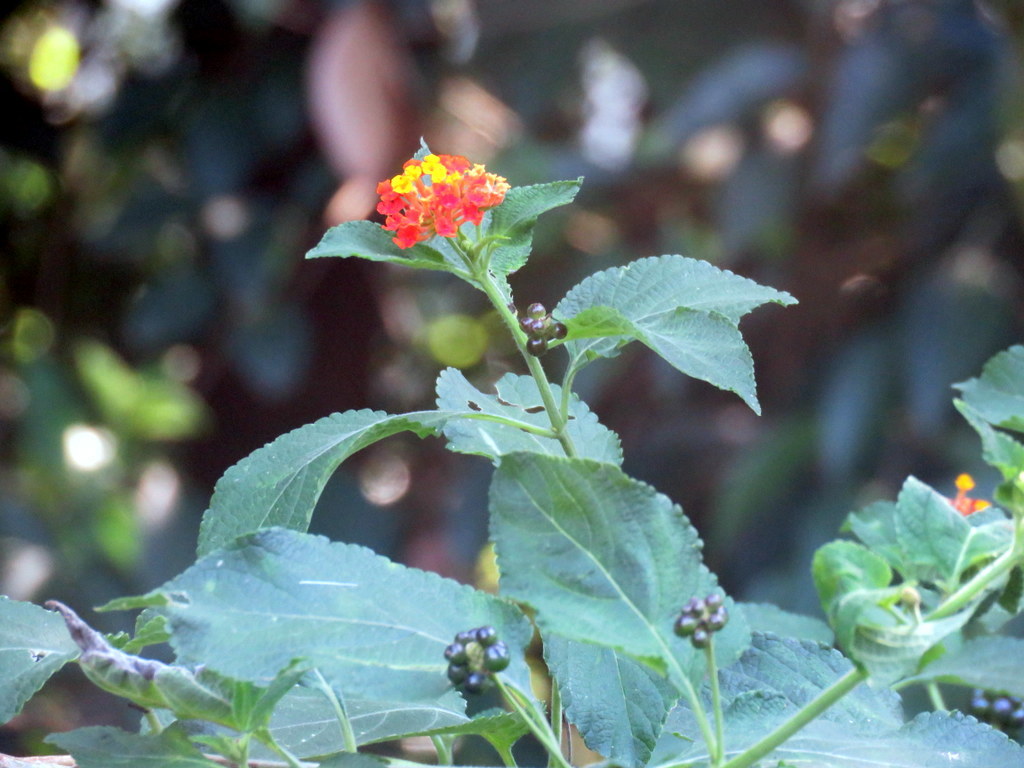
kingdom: Plantae
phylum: Tracheophyta
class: Magnoliopsida
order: Lamiales
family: Verbenaceae
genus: Lantana
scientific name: Lantana camara
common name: Lantana
